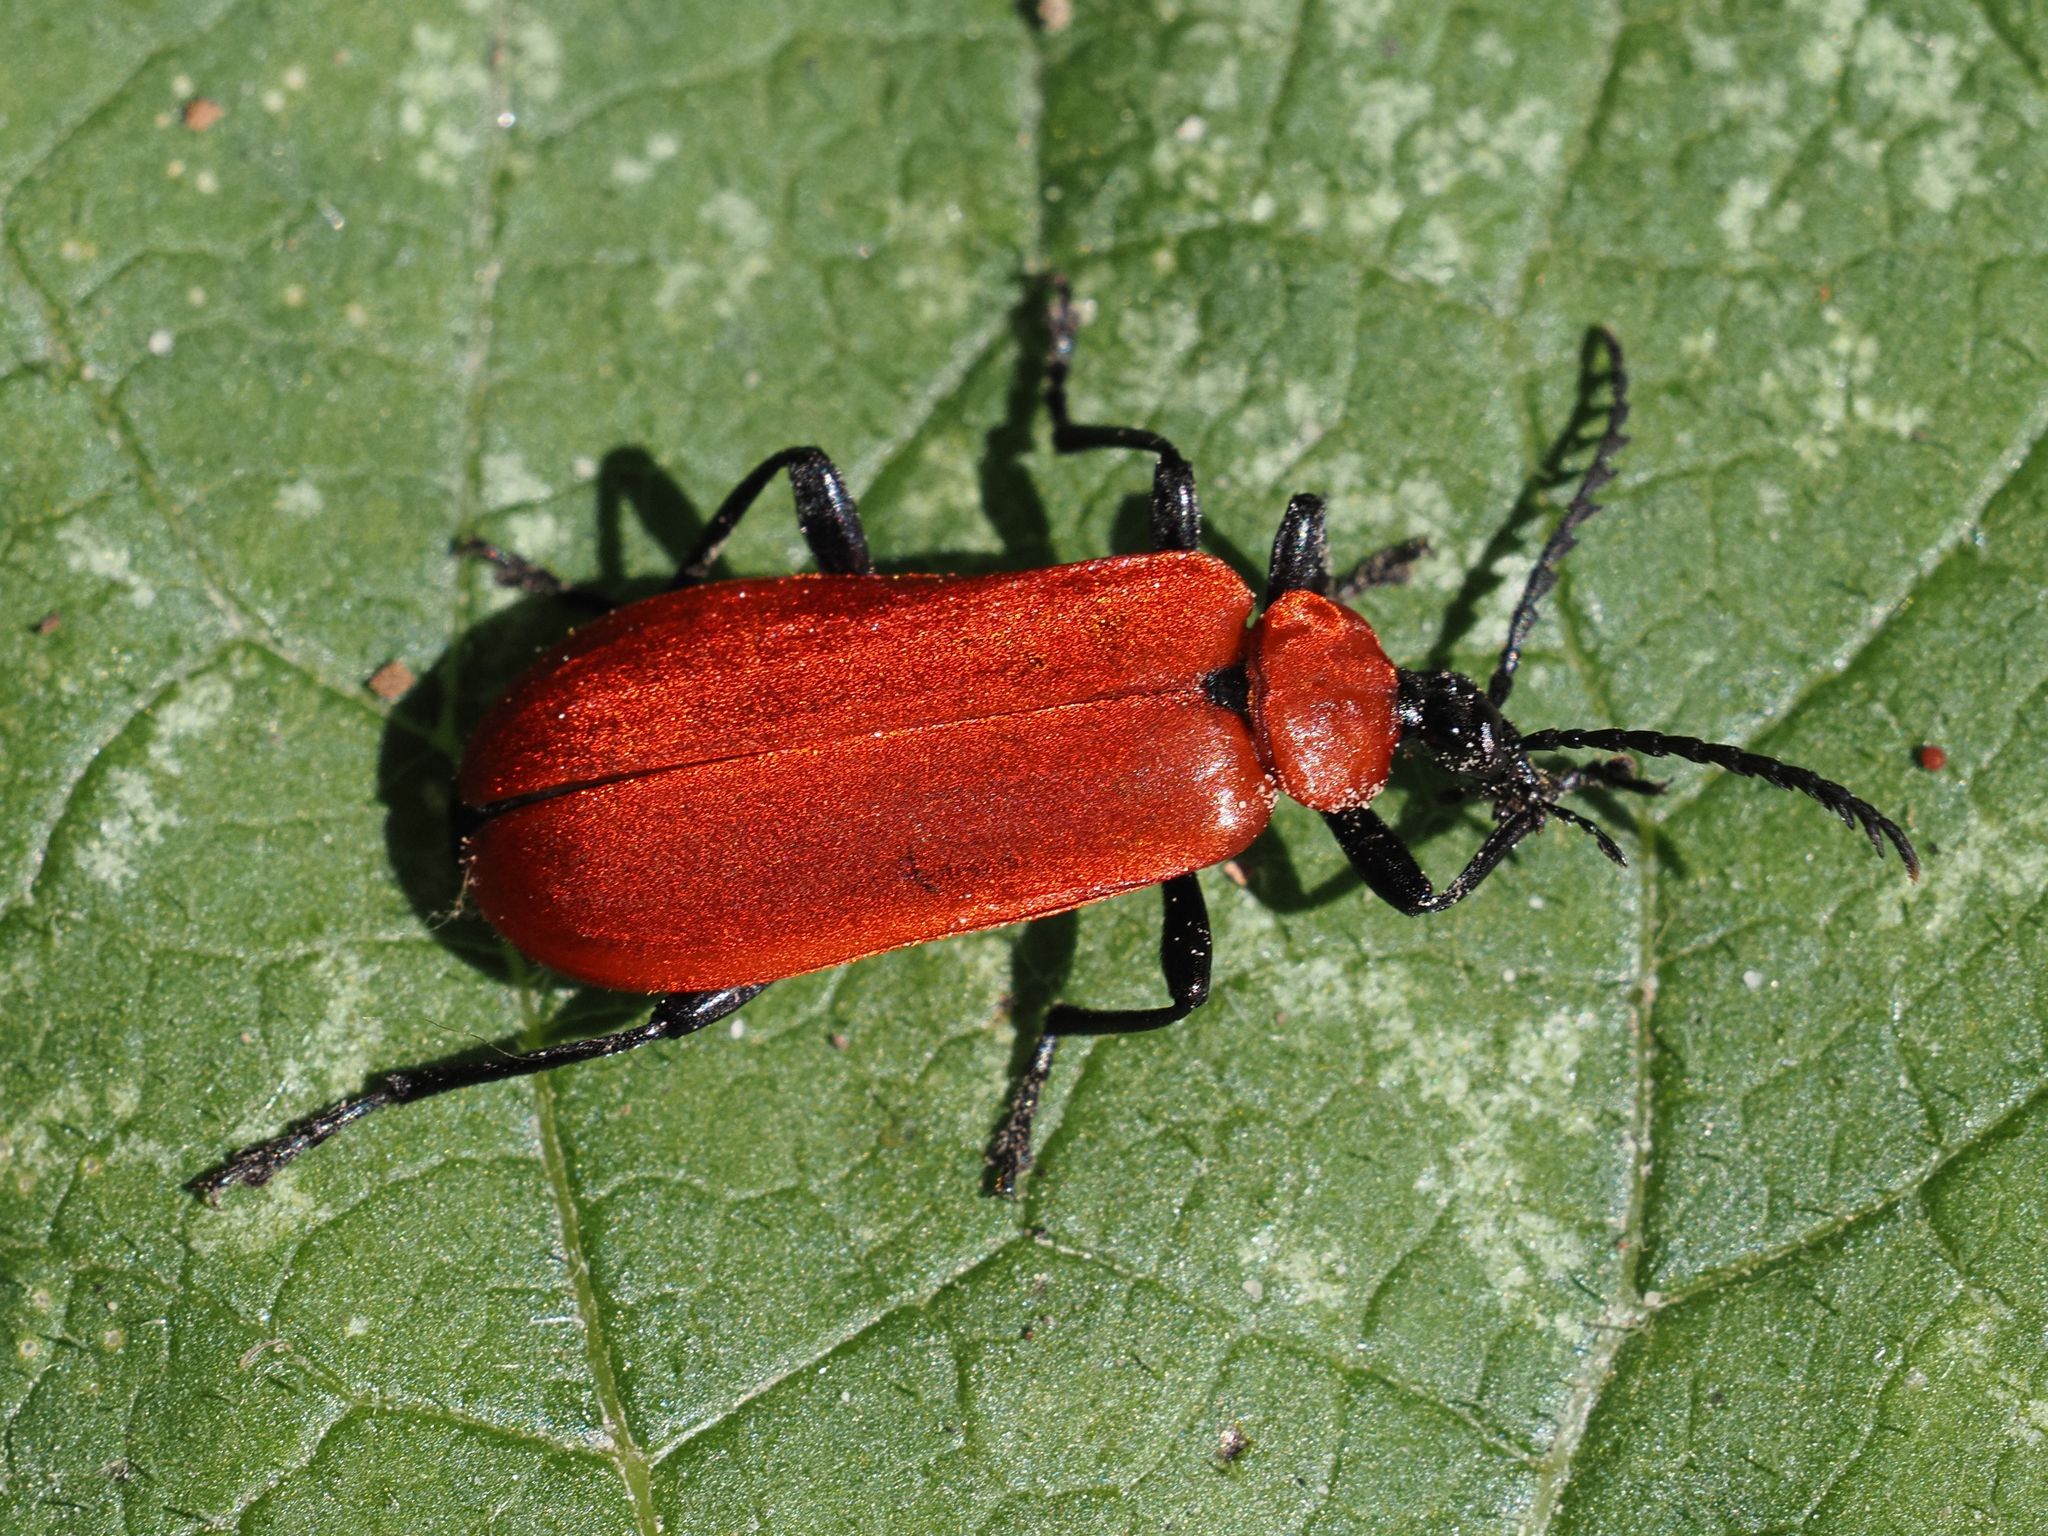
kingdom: Animalia
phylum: Arthropoda
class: Insecta
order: Coleoptera
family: Pyrochroidae
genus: Pyrochroa
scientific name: Pyrochroa coccinea
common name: Black-headed cardinal beetle
